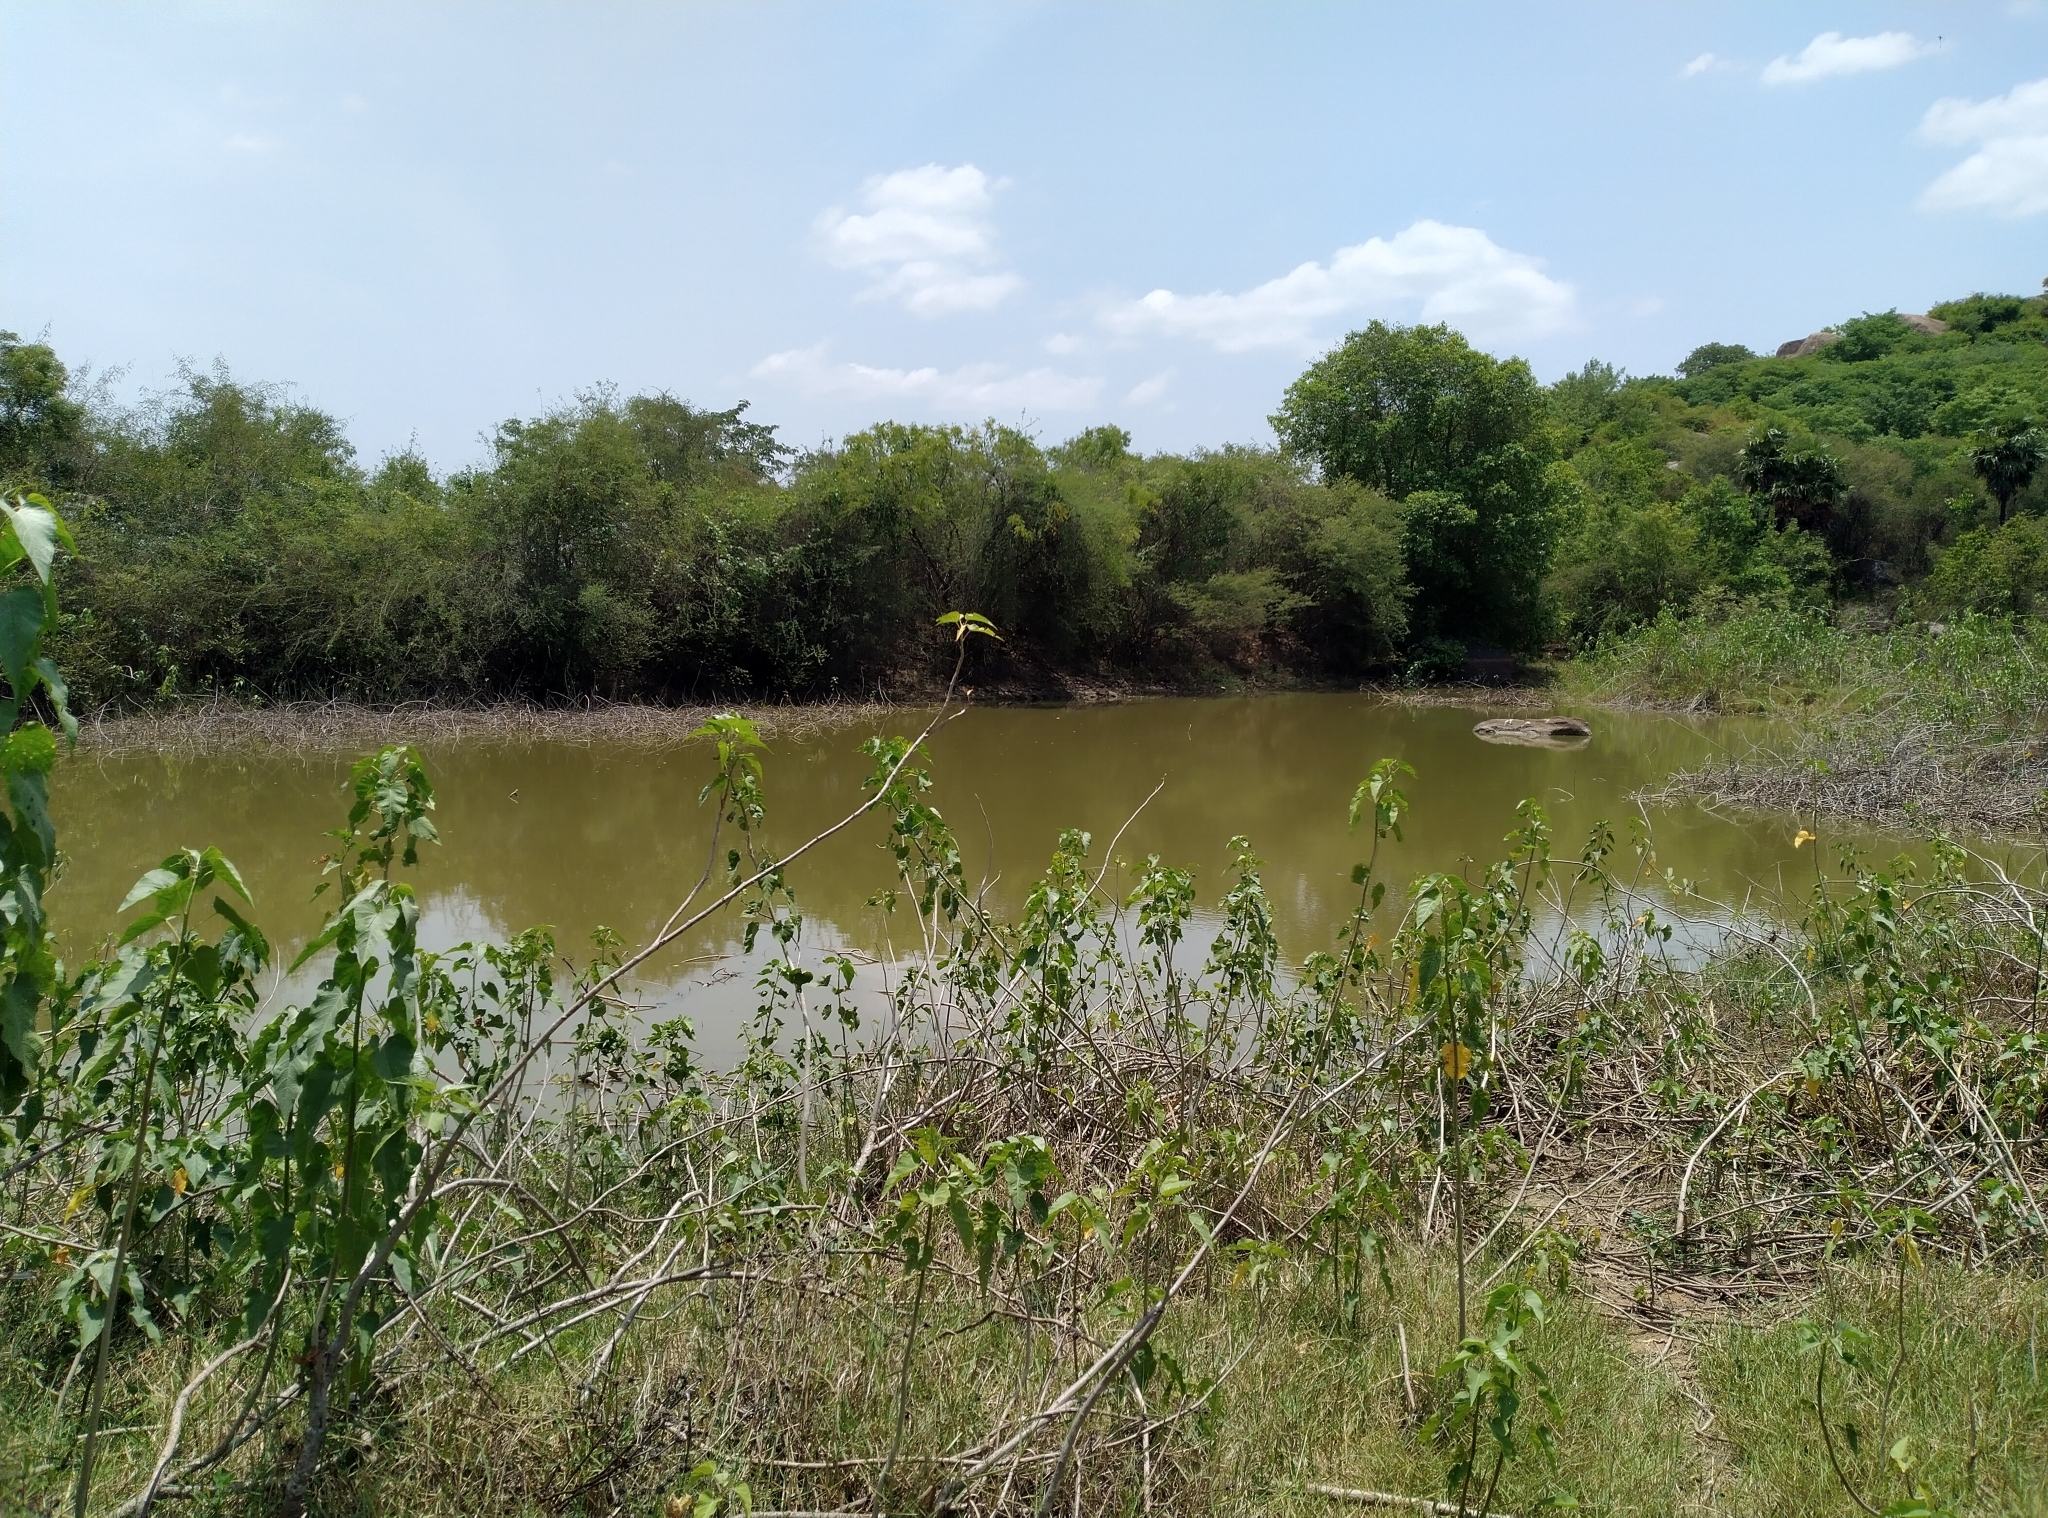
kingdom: Plantae
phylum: Tracheophyta
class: Magnoliopsida
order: Solanales
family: Convolvulaceae
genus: Ipomoea
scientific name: Ipomoea carnea
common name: Morning-glory
